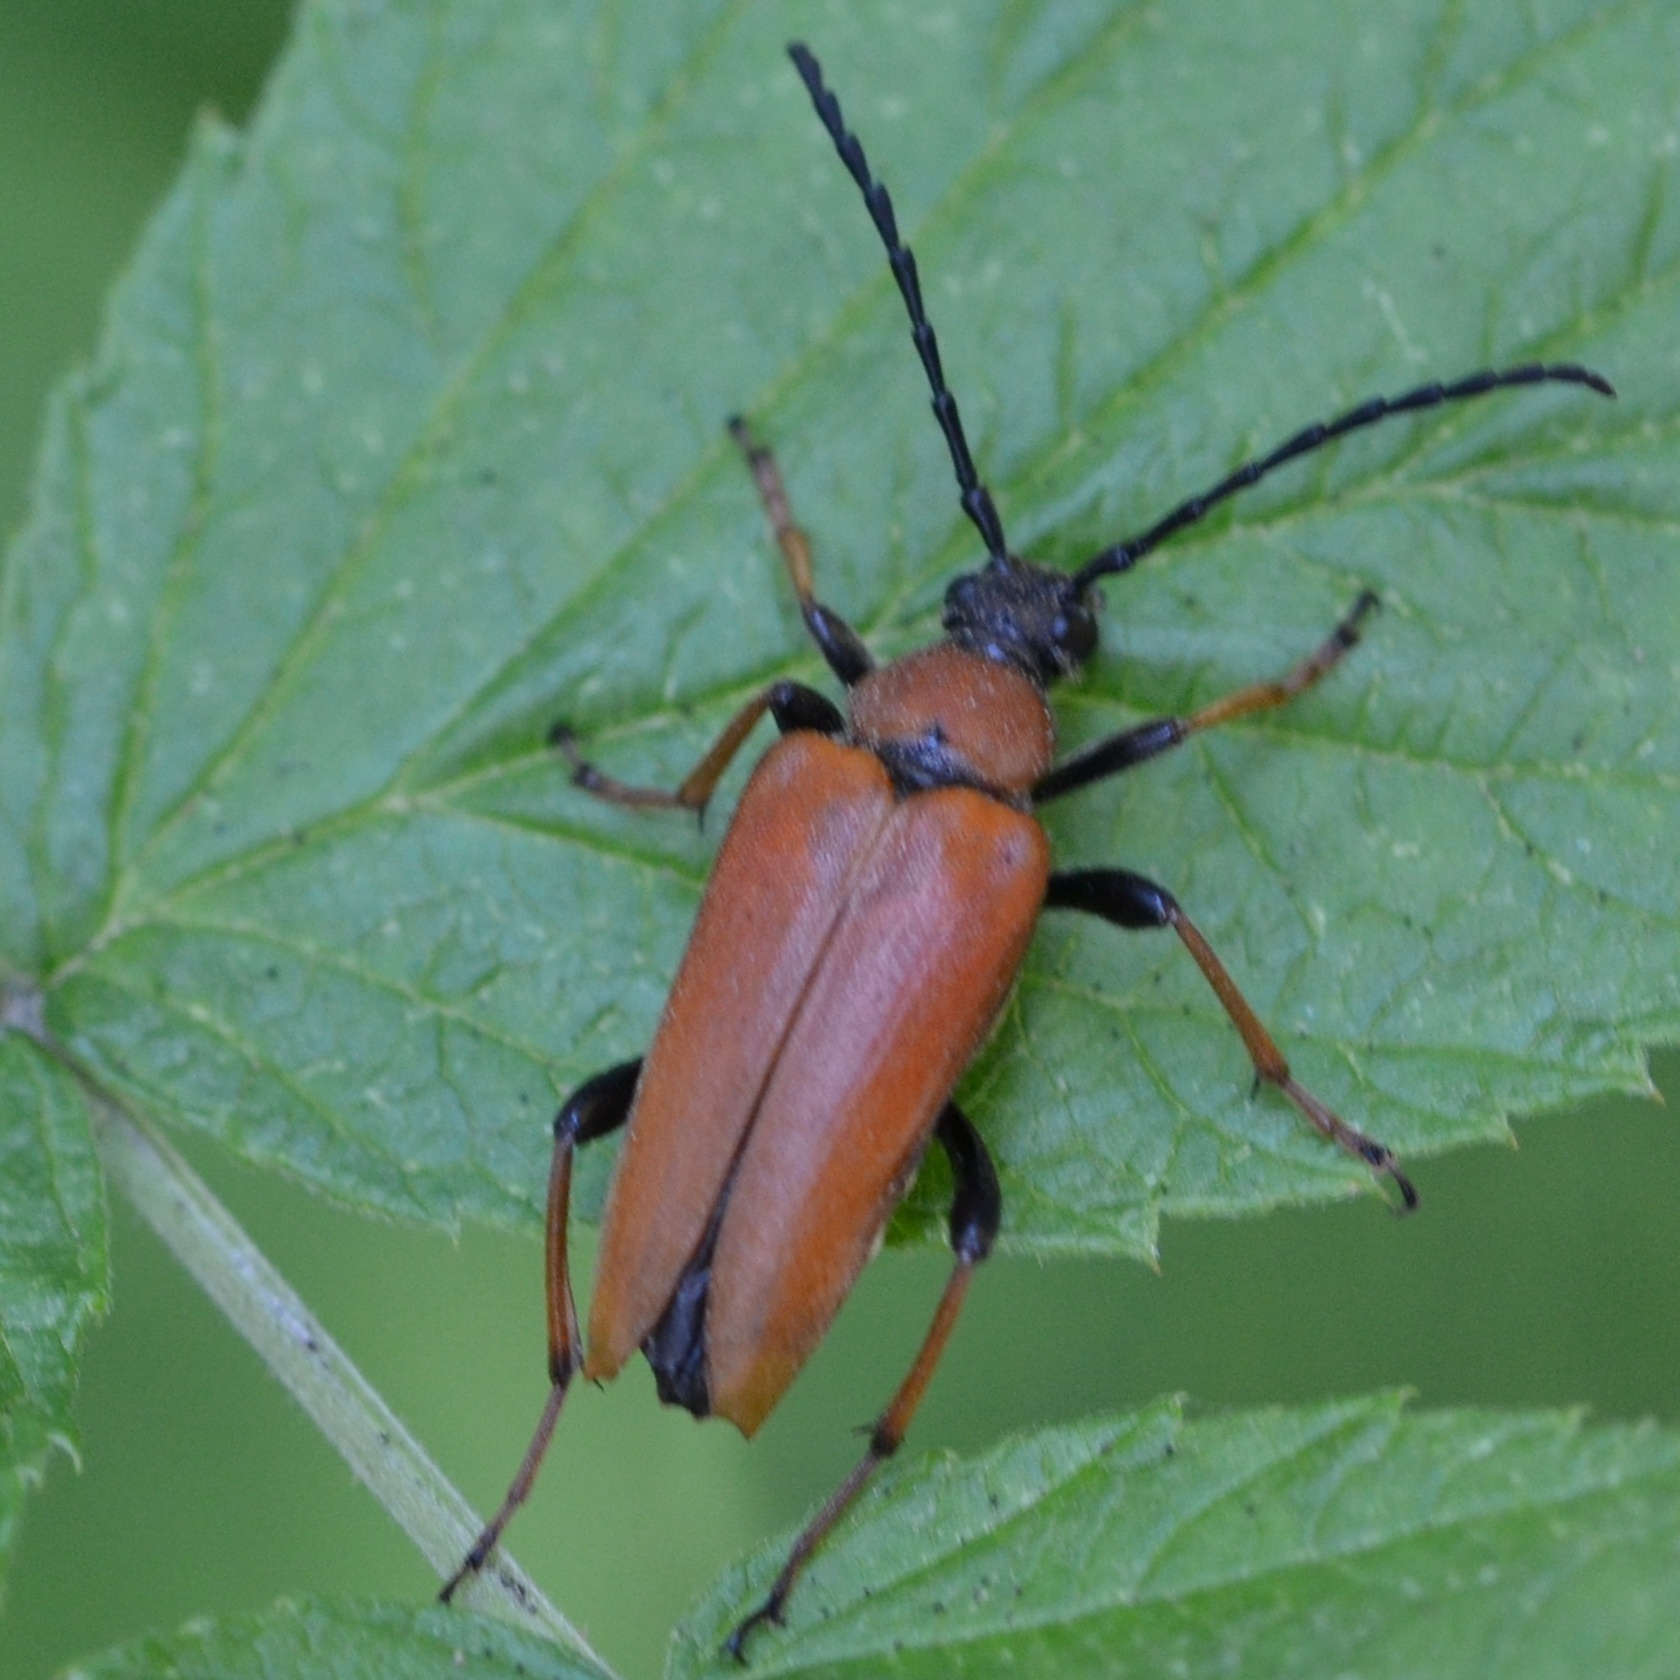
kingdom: Animalia
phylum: Arthropoda
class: Insecta
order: Coleoptera
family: Cerambycidae
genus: Stictoleptura
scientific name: Stictoleptura rubra
